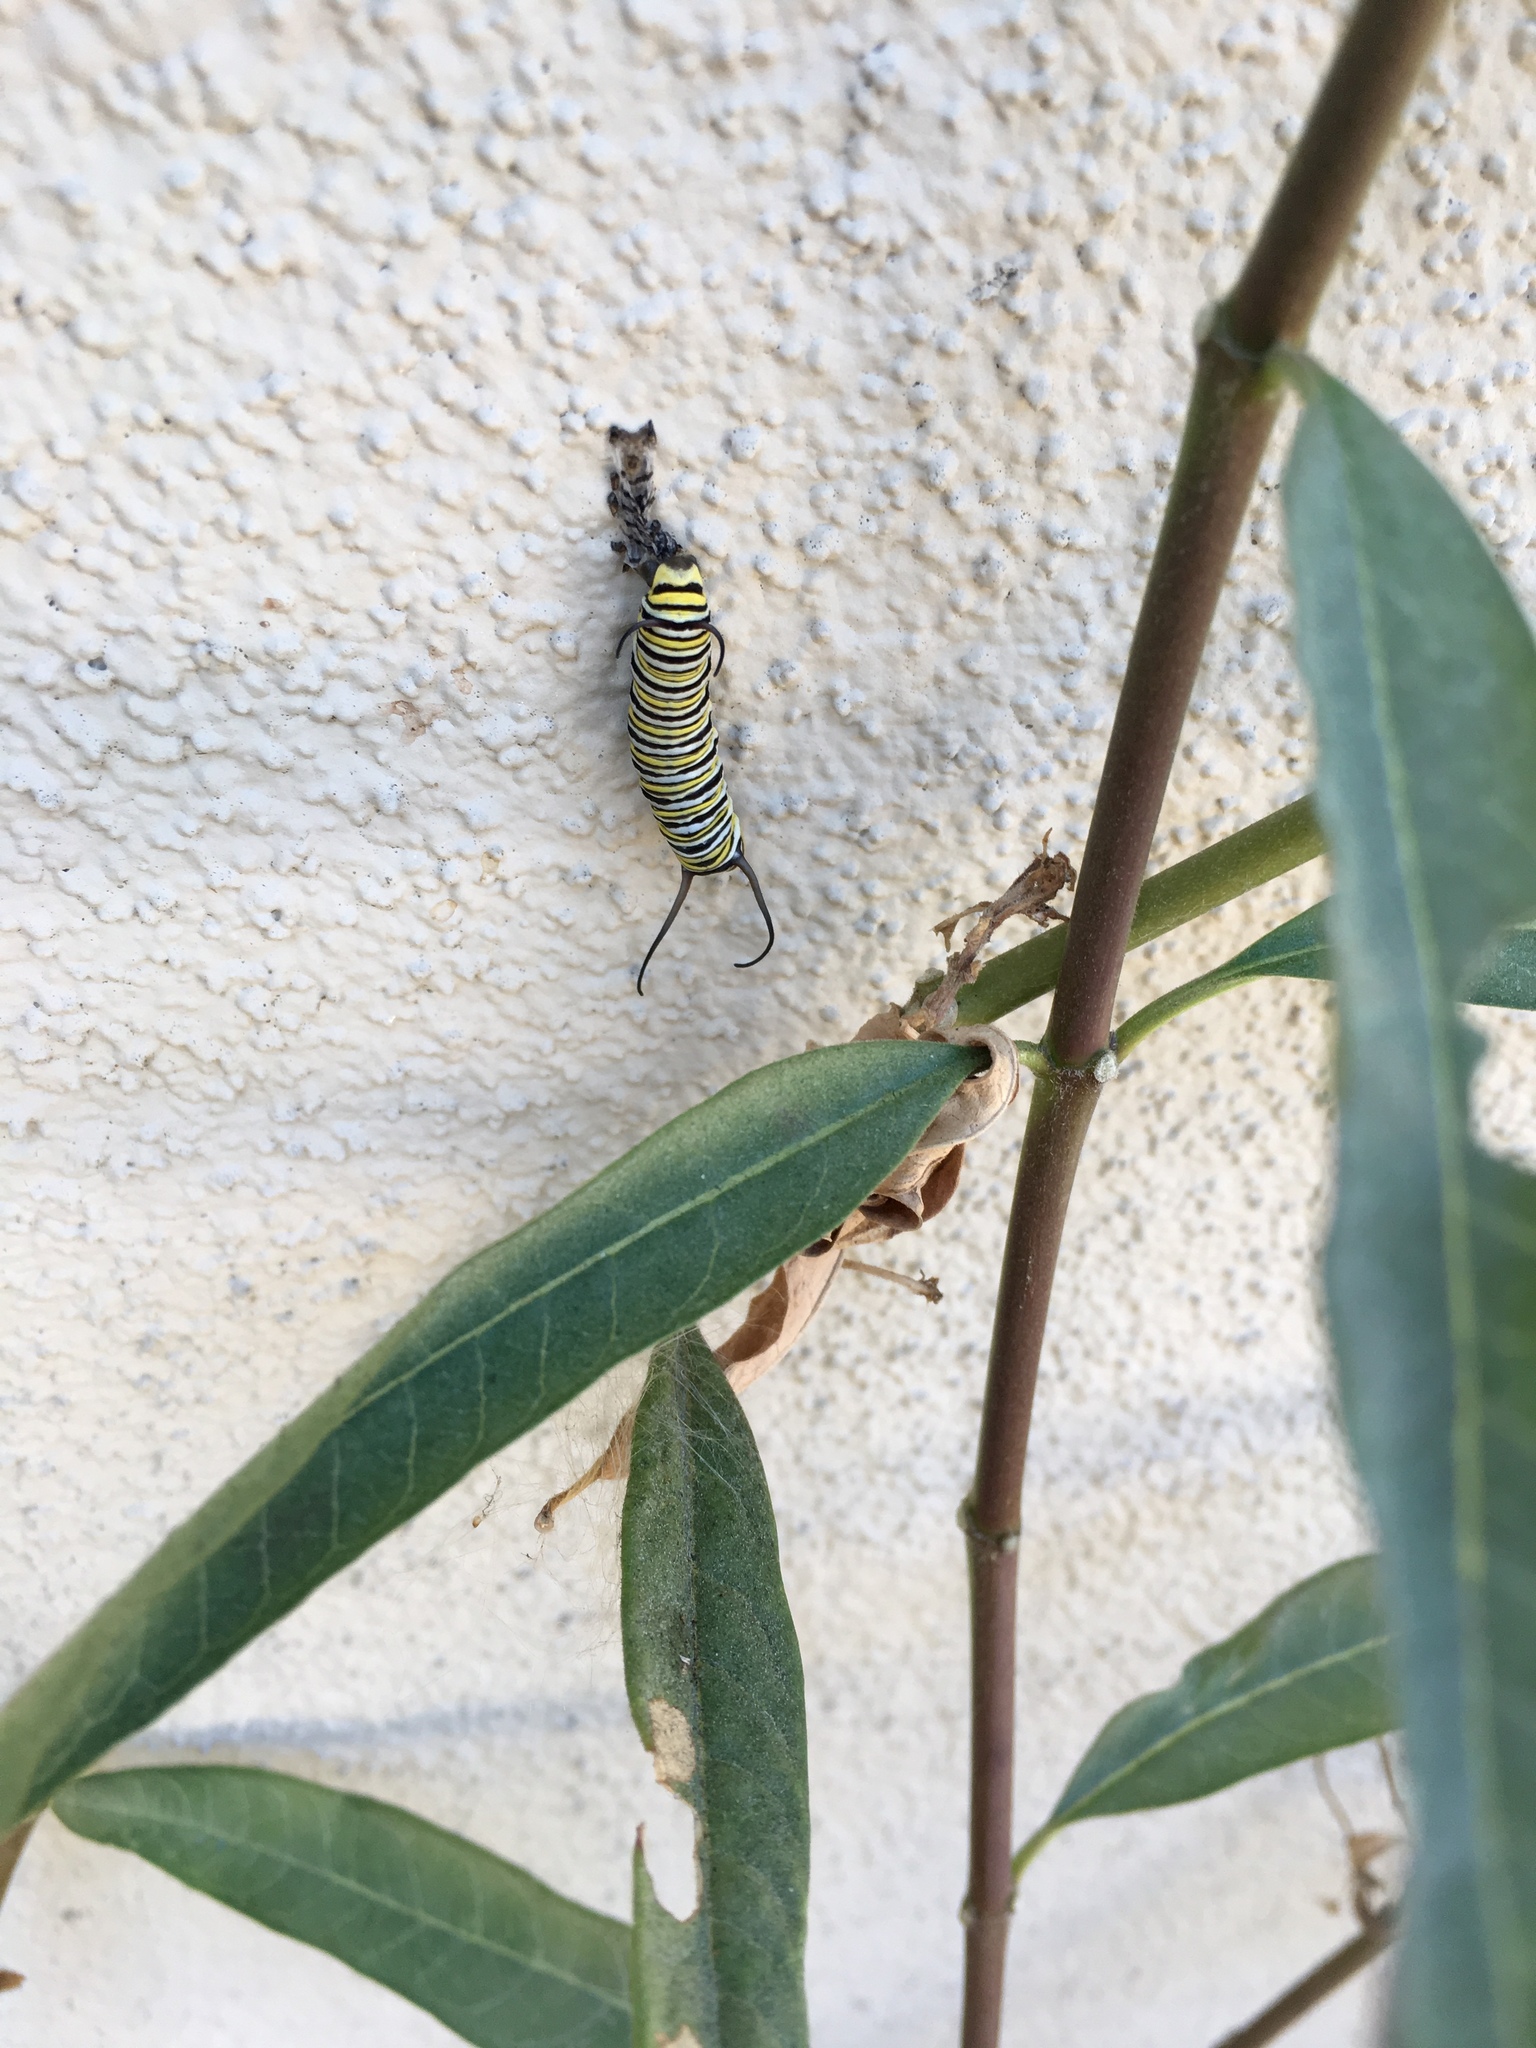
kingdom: Animalia
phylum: Arthropoda
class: Insecta
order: Lepidoptera
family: Nymphalidae
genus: Danaus
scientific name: Danaus plexippus
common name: Monarch
